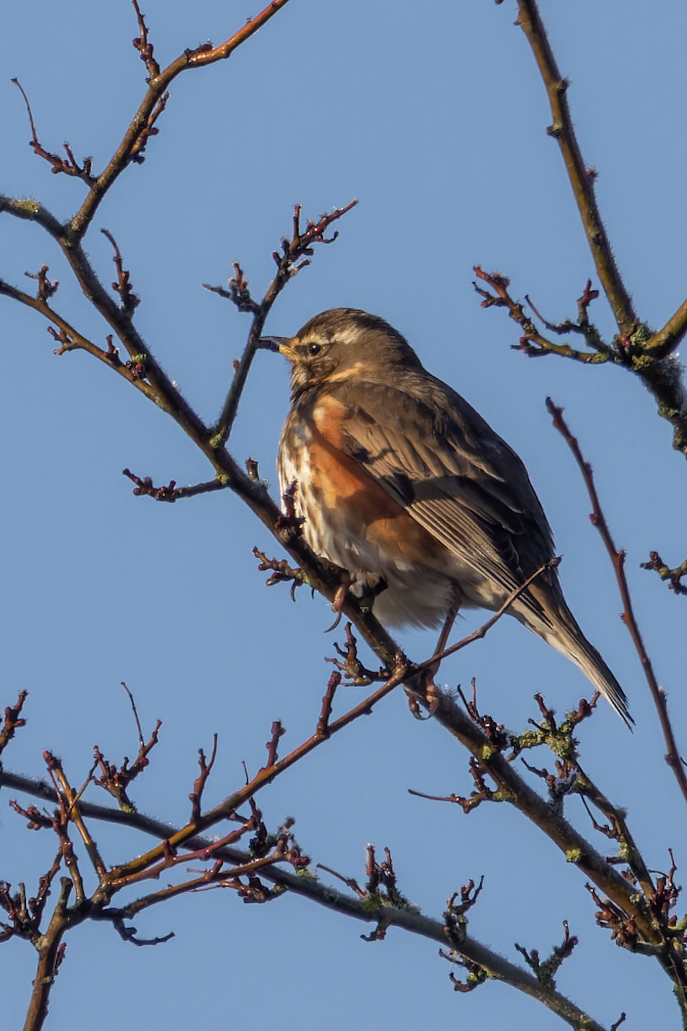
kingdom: Animalia
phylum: Chordata
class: Aves
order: Passeriformes
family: Turdidae
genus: Turdus
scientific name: Turdus iliacus
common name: Redwing
